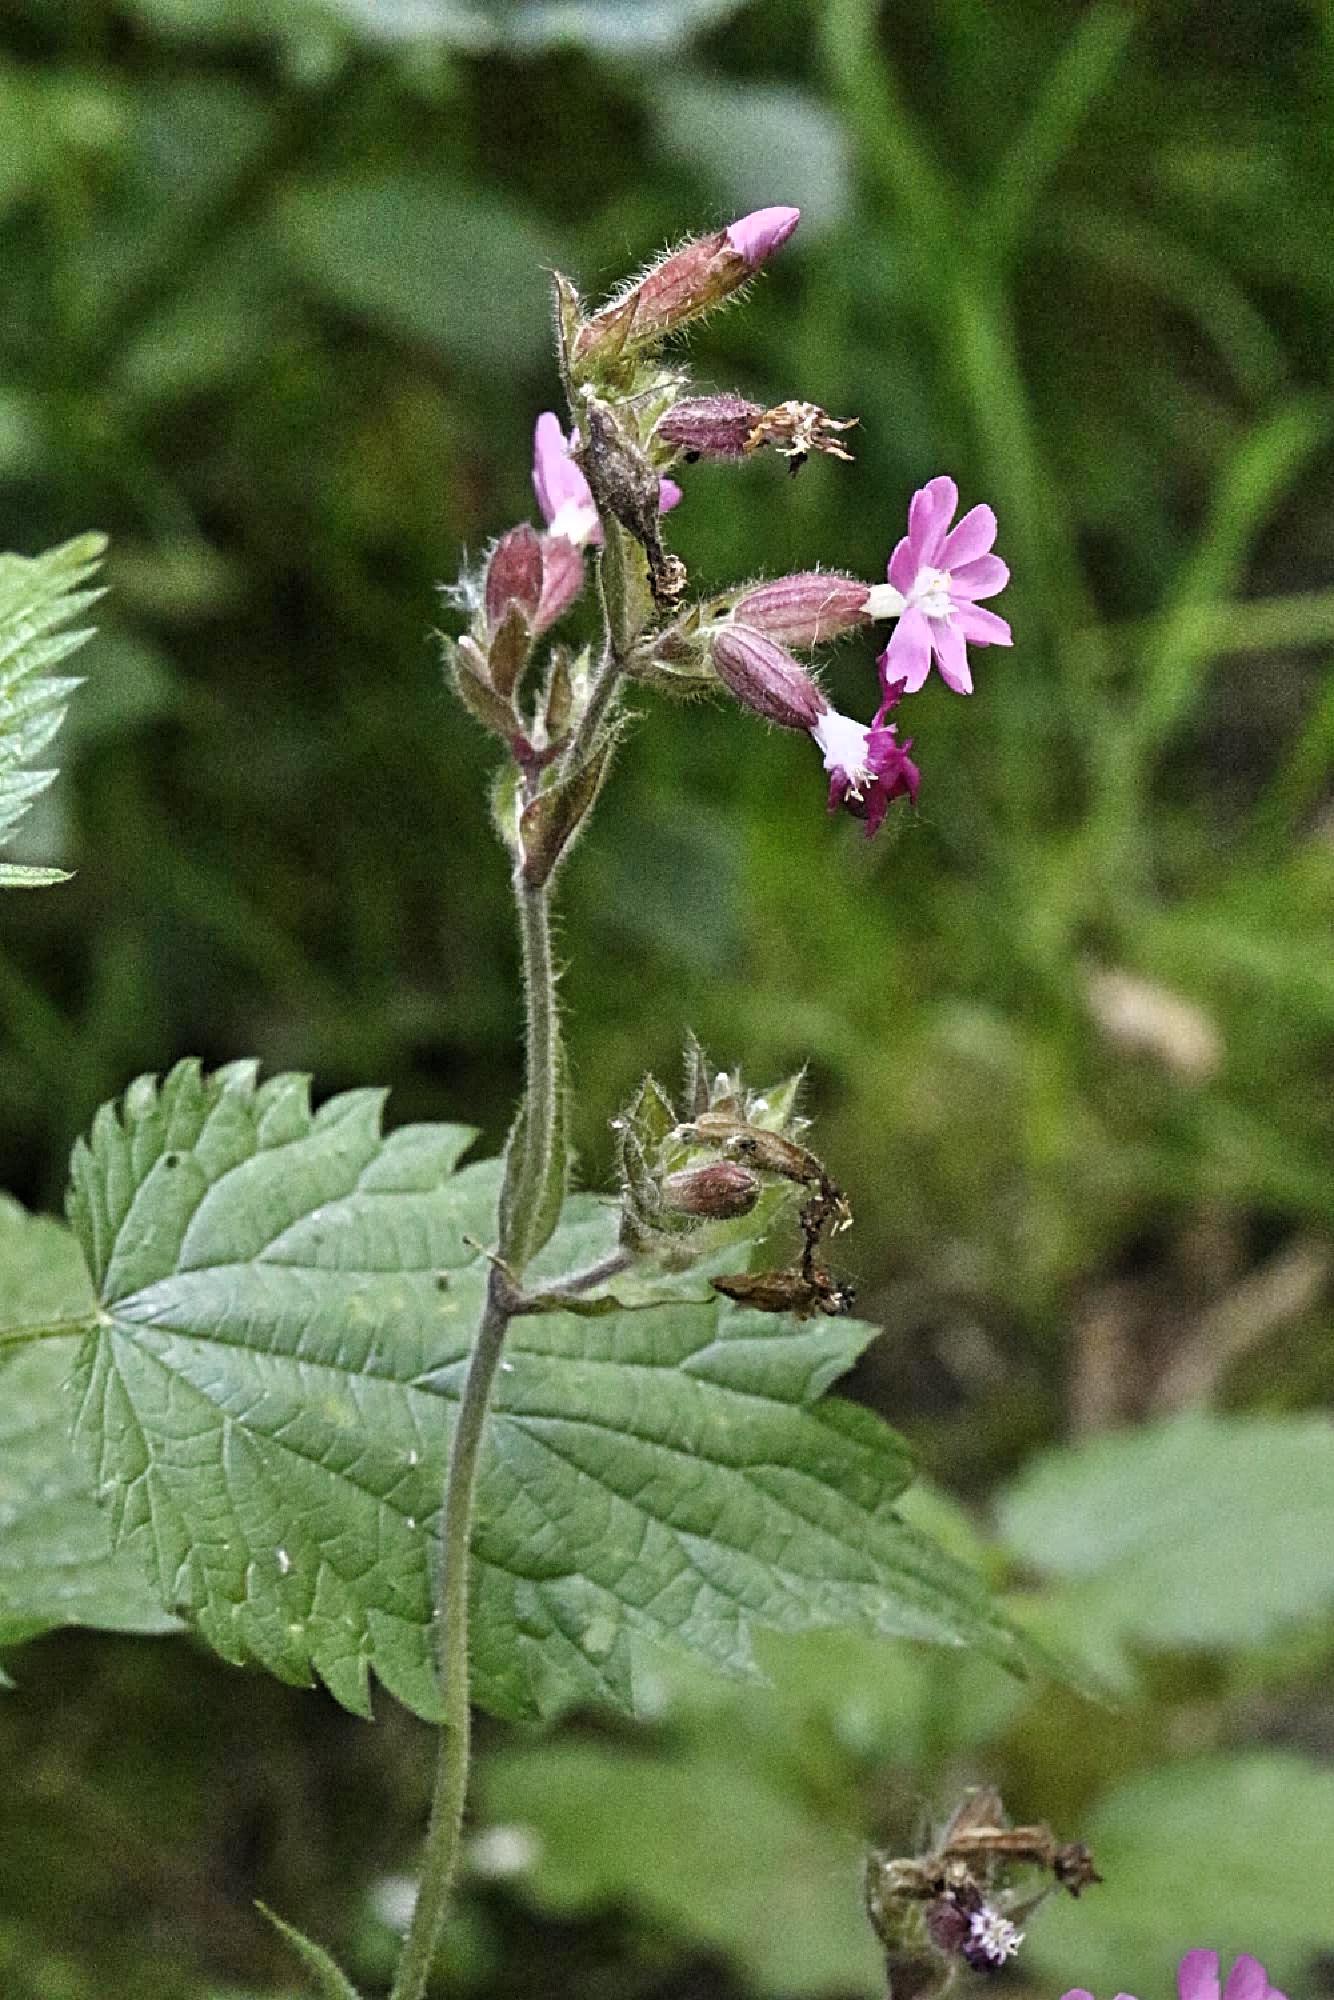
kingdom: Plantae
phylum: Tracheophyta
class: Magnoliopsida
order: Caryophyllales
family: Caryophyllaceae
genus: Silene
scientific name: Silene dioica
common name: Red campion
